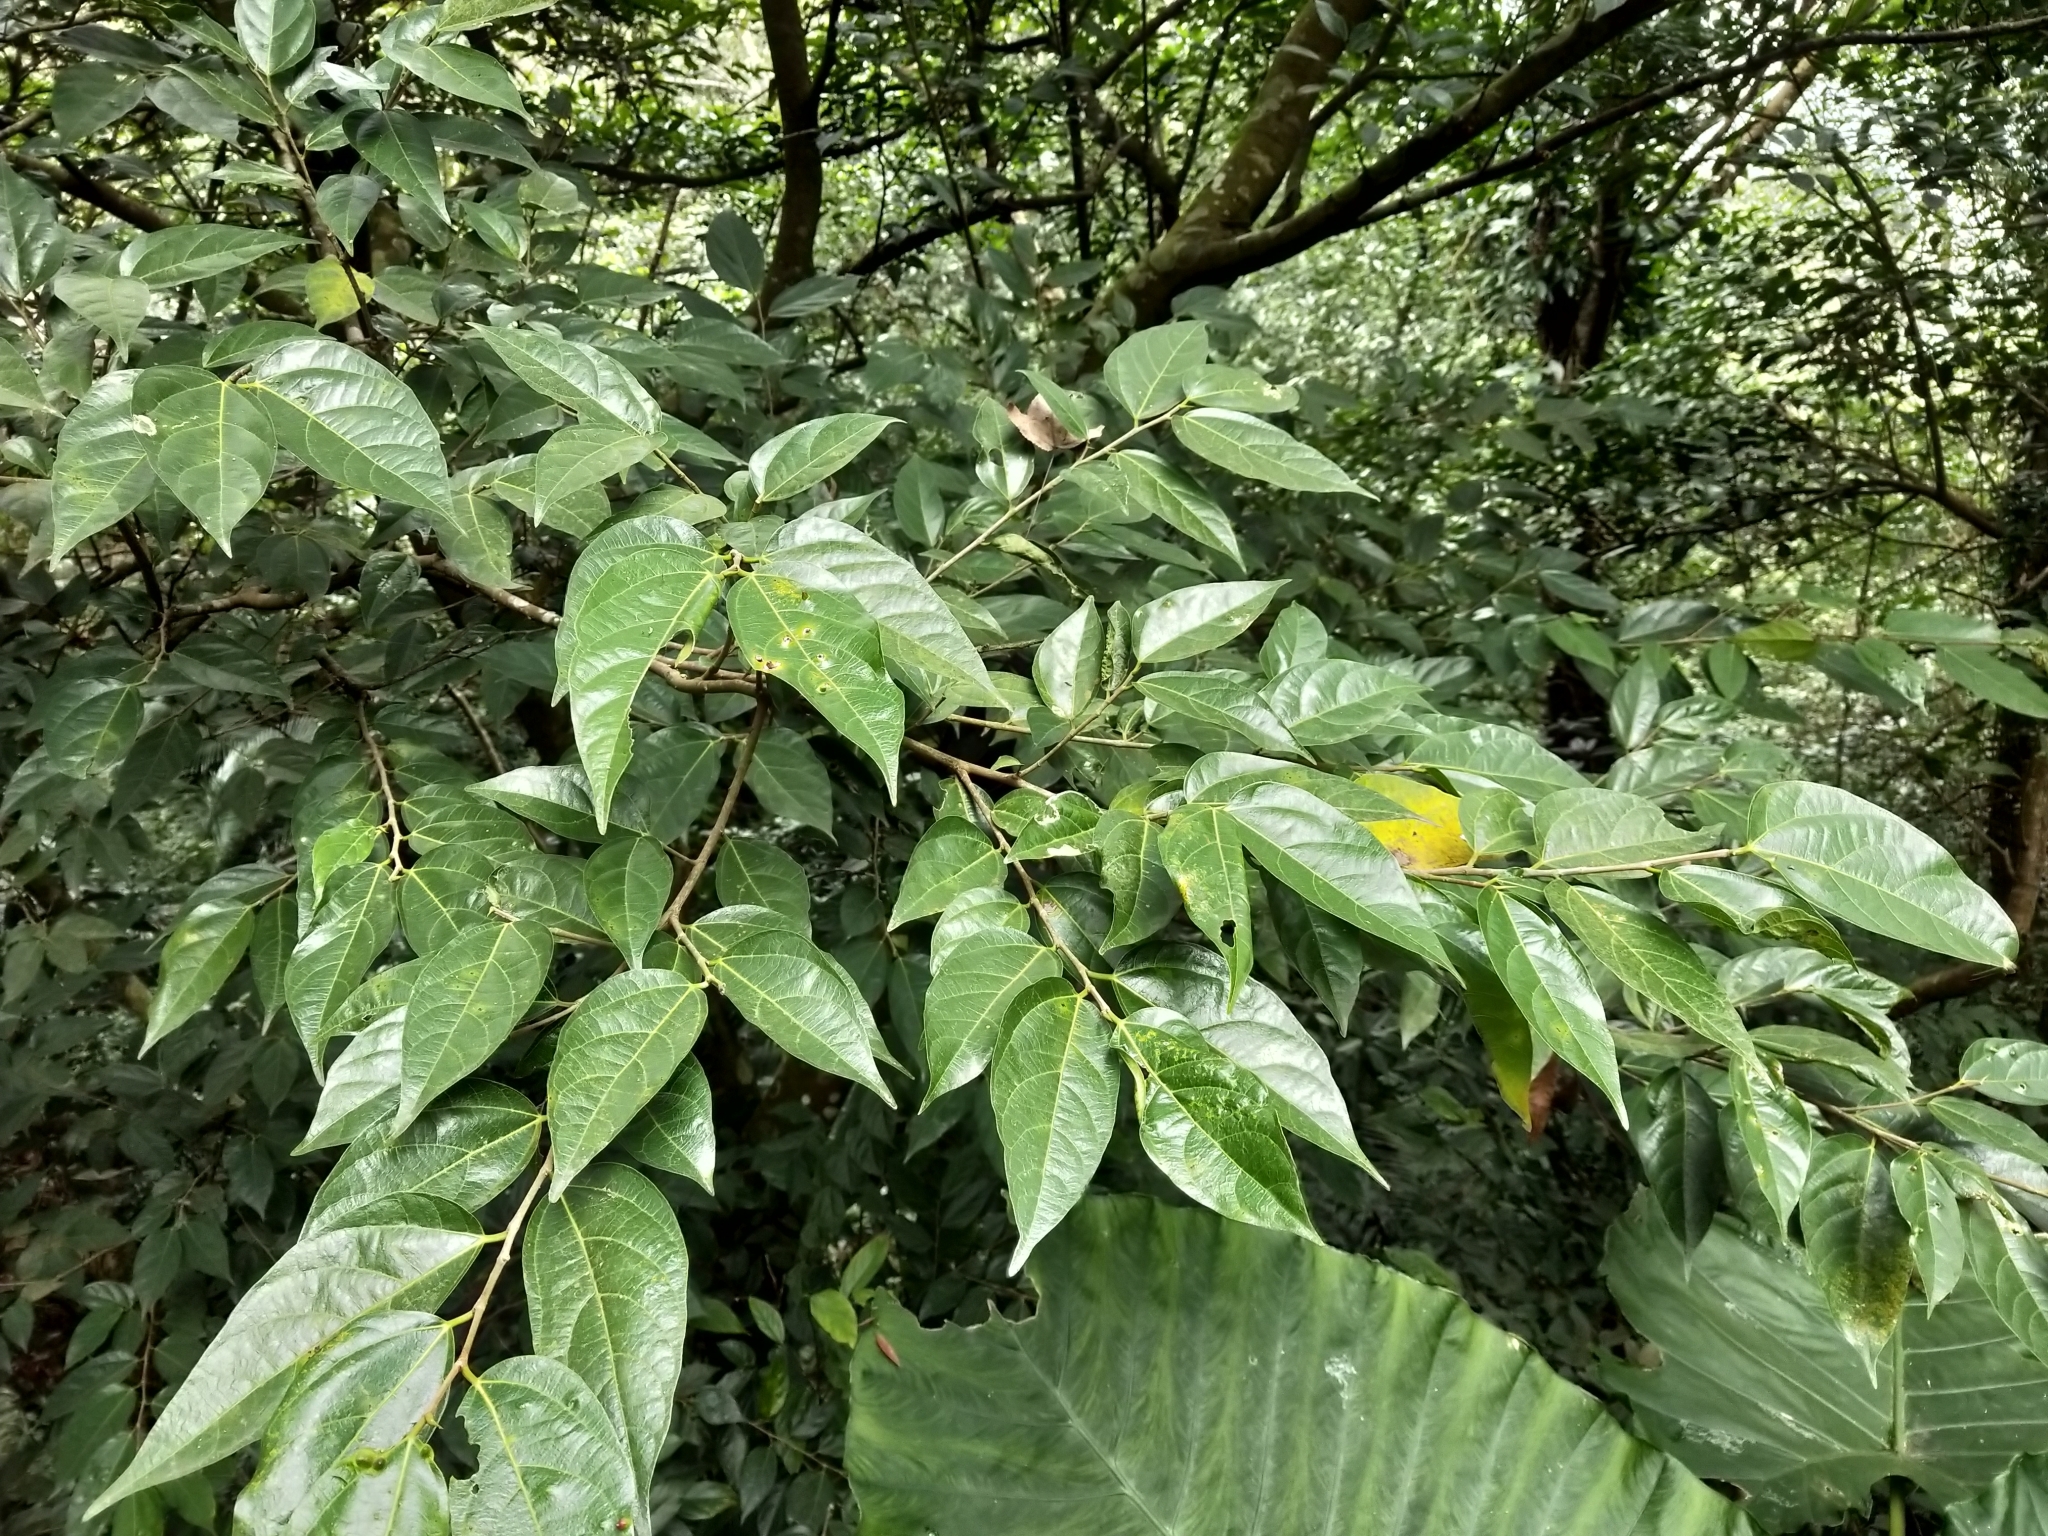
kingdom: Plantae
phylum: Tracheophyta
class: Magnoliopsida
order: Rosales
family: Moraceae
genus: Ficus
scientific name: Ficus ampelos
